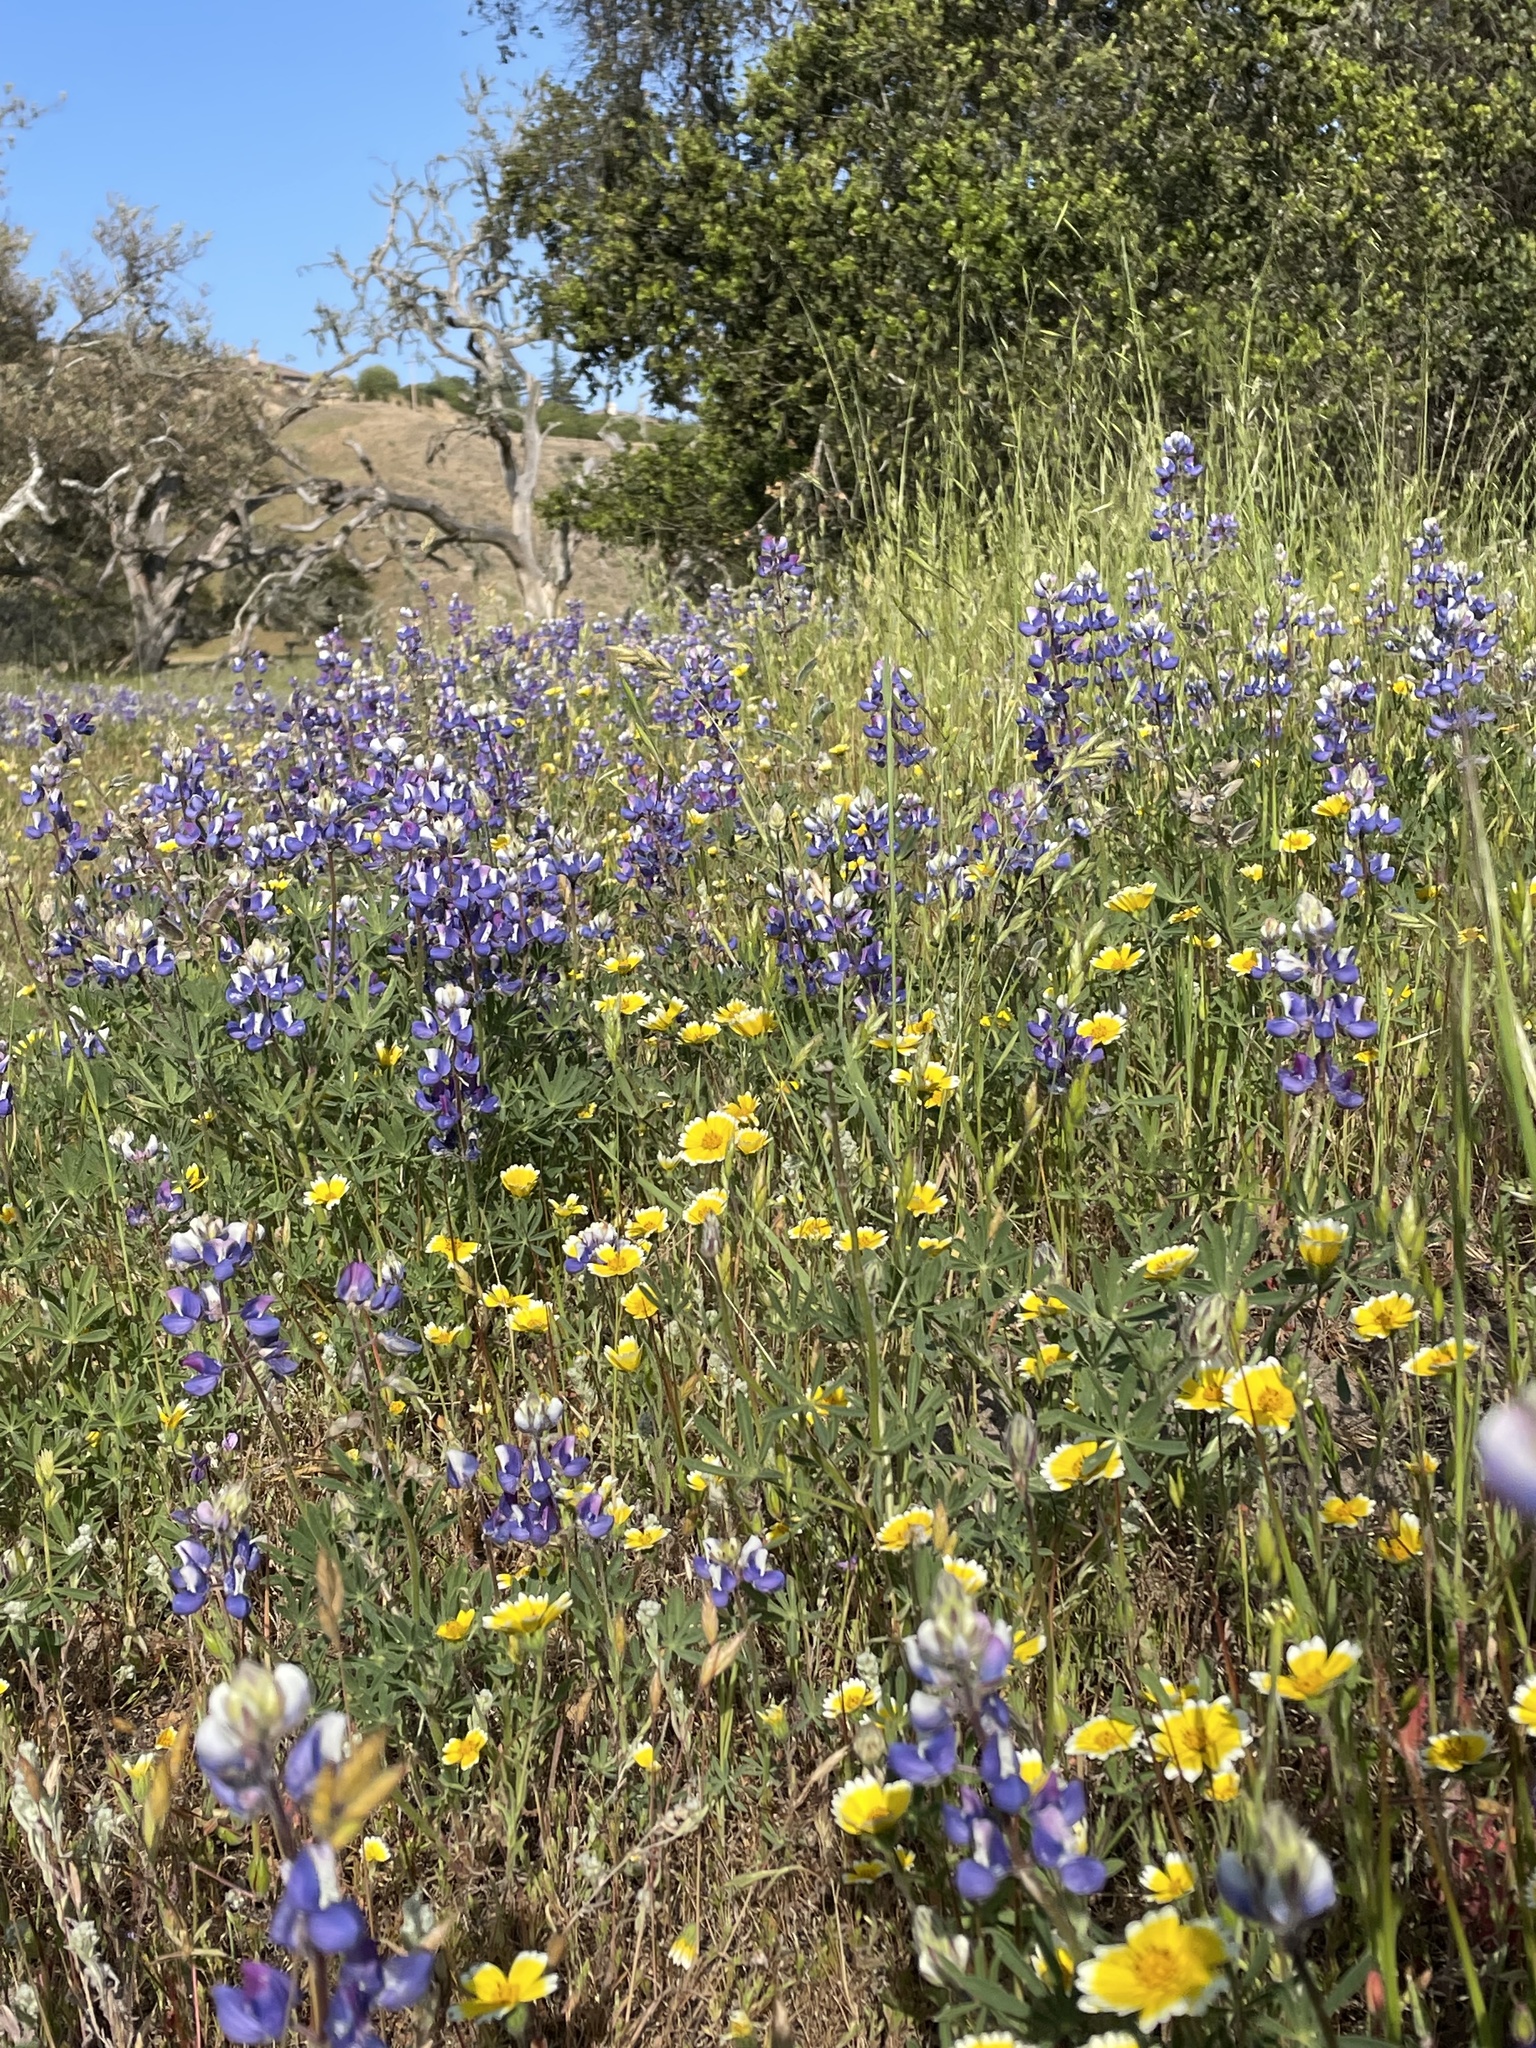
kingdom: Plantae
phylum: Tracheophyta
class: Magnoliopsida
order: Fabales
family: Fabaceae
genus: Lupinus
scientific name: Lupinus nanus
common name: Orean blue lupin
